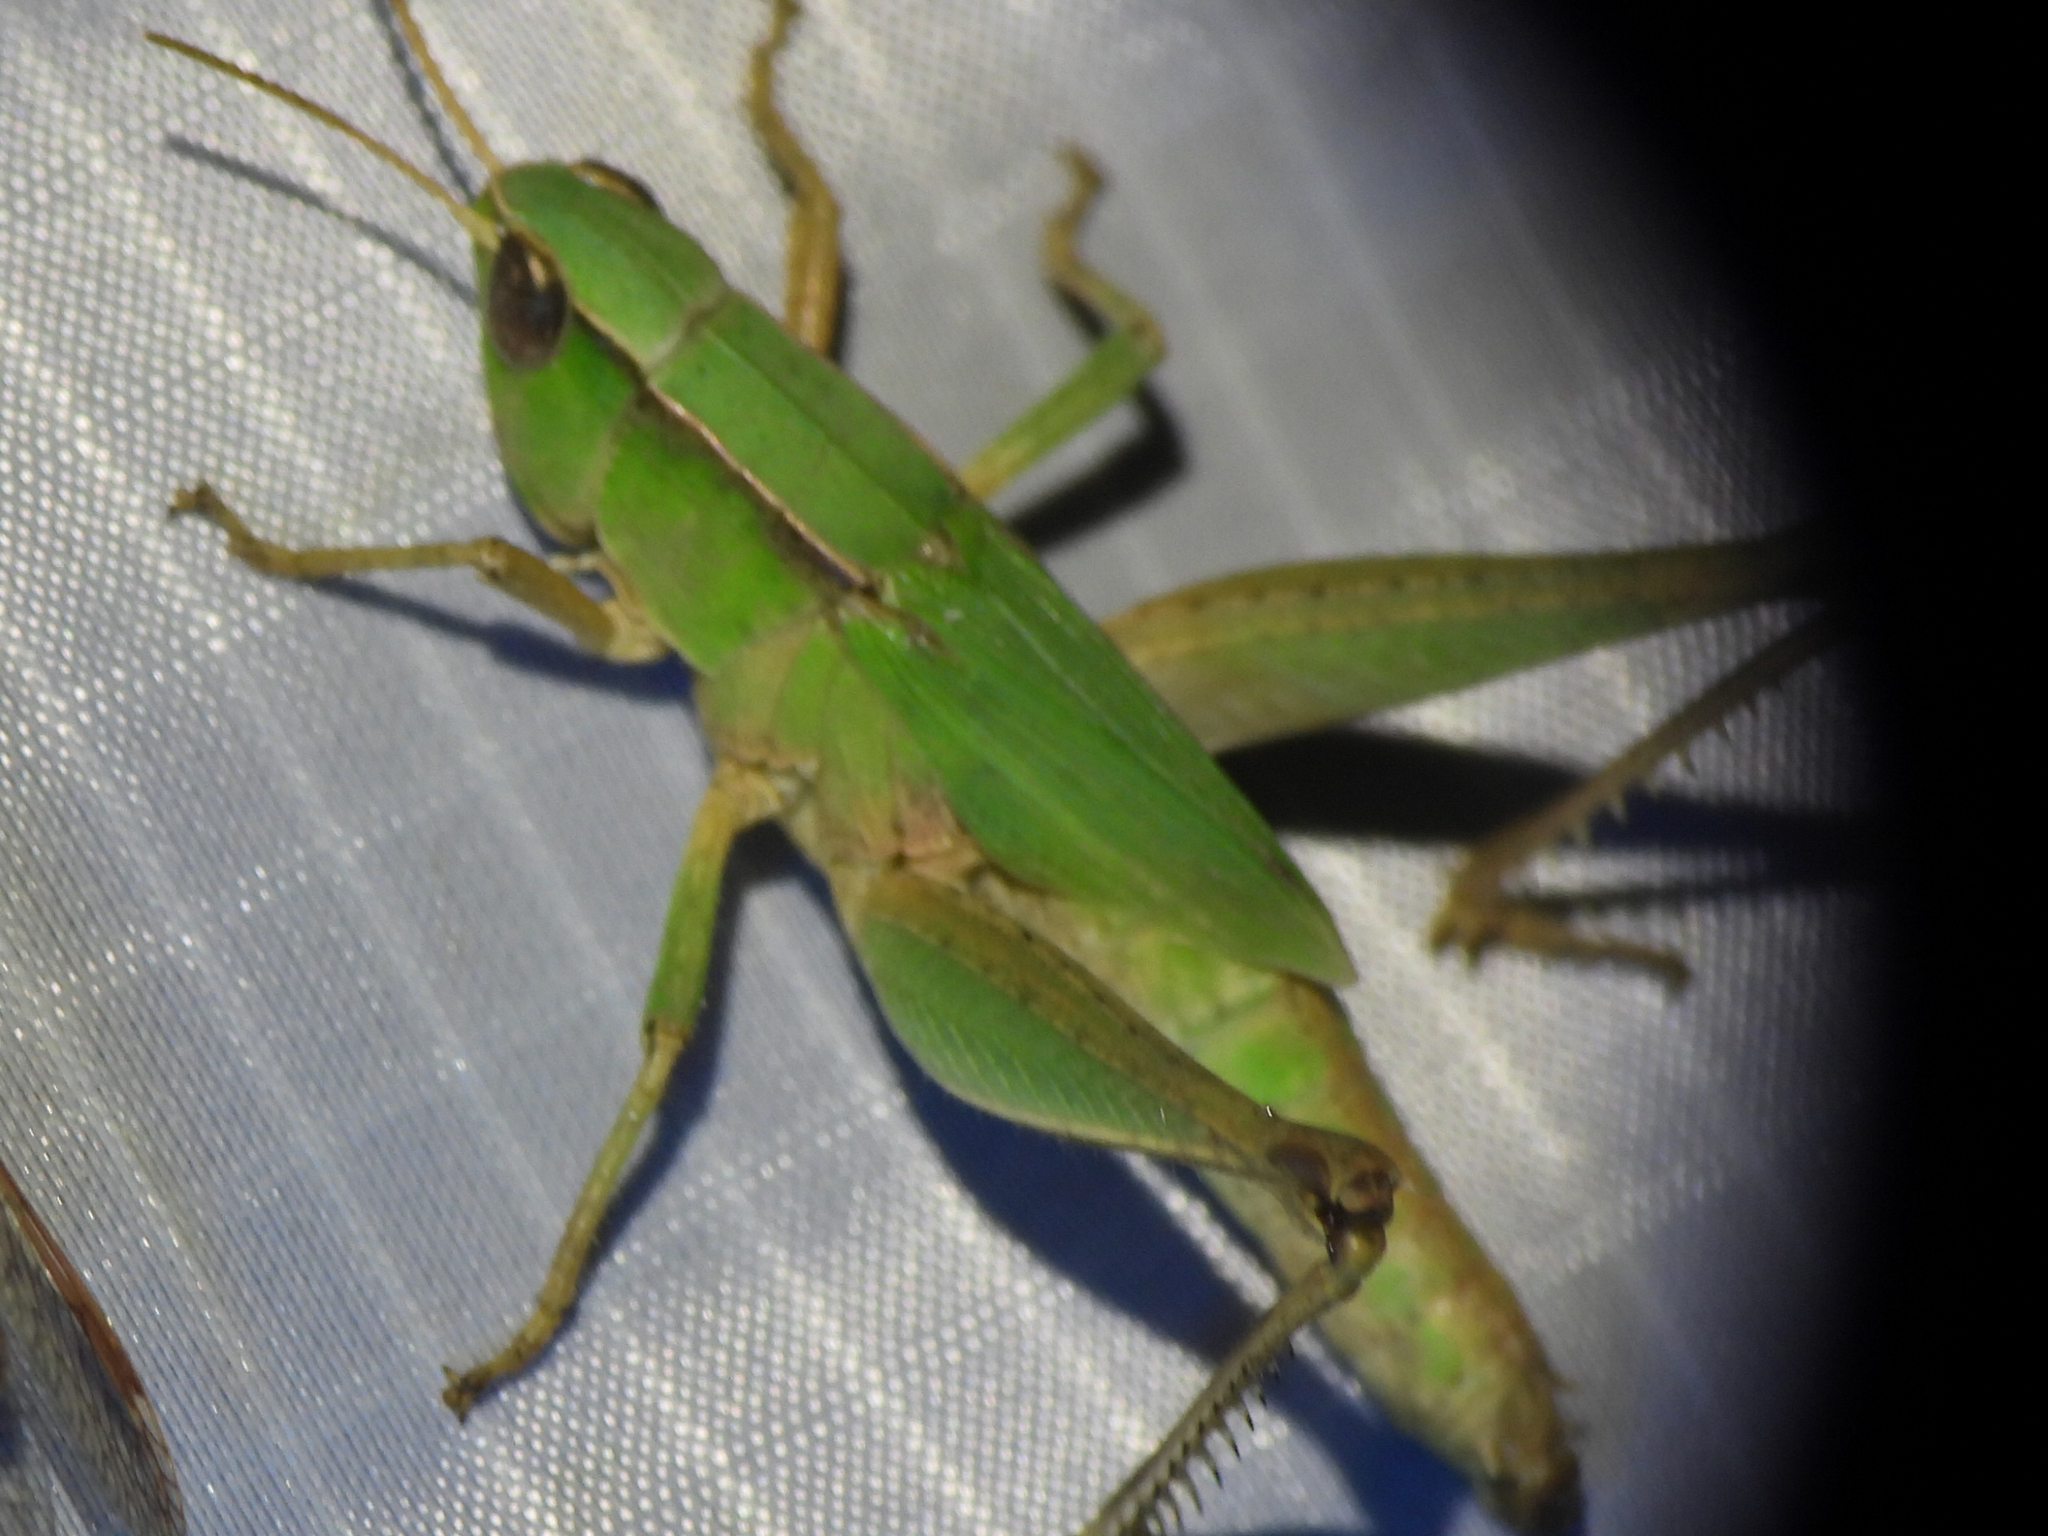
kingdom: Animalia
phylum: Arthropoda
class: Insecta
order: Orthoptera
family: Acrididae
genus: Dichromorpha
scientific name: Dichromorpha viridis
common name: Short-winged green grasshopper
